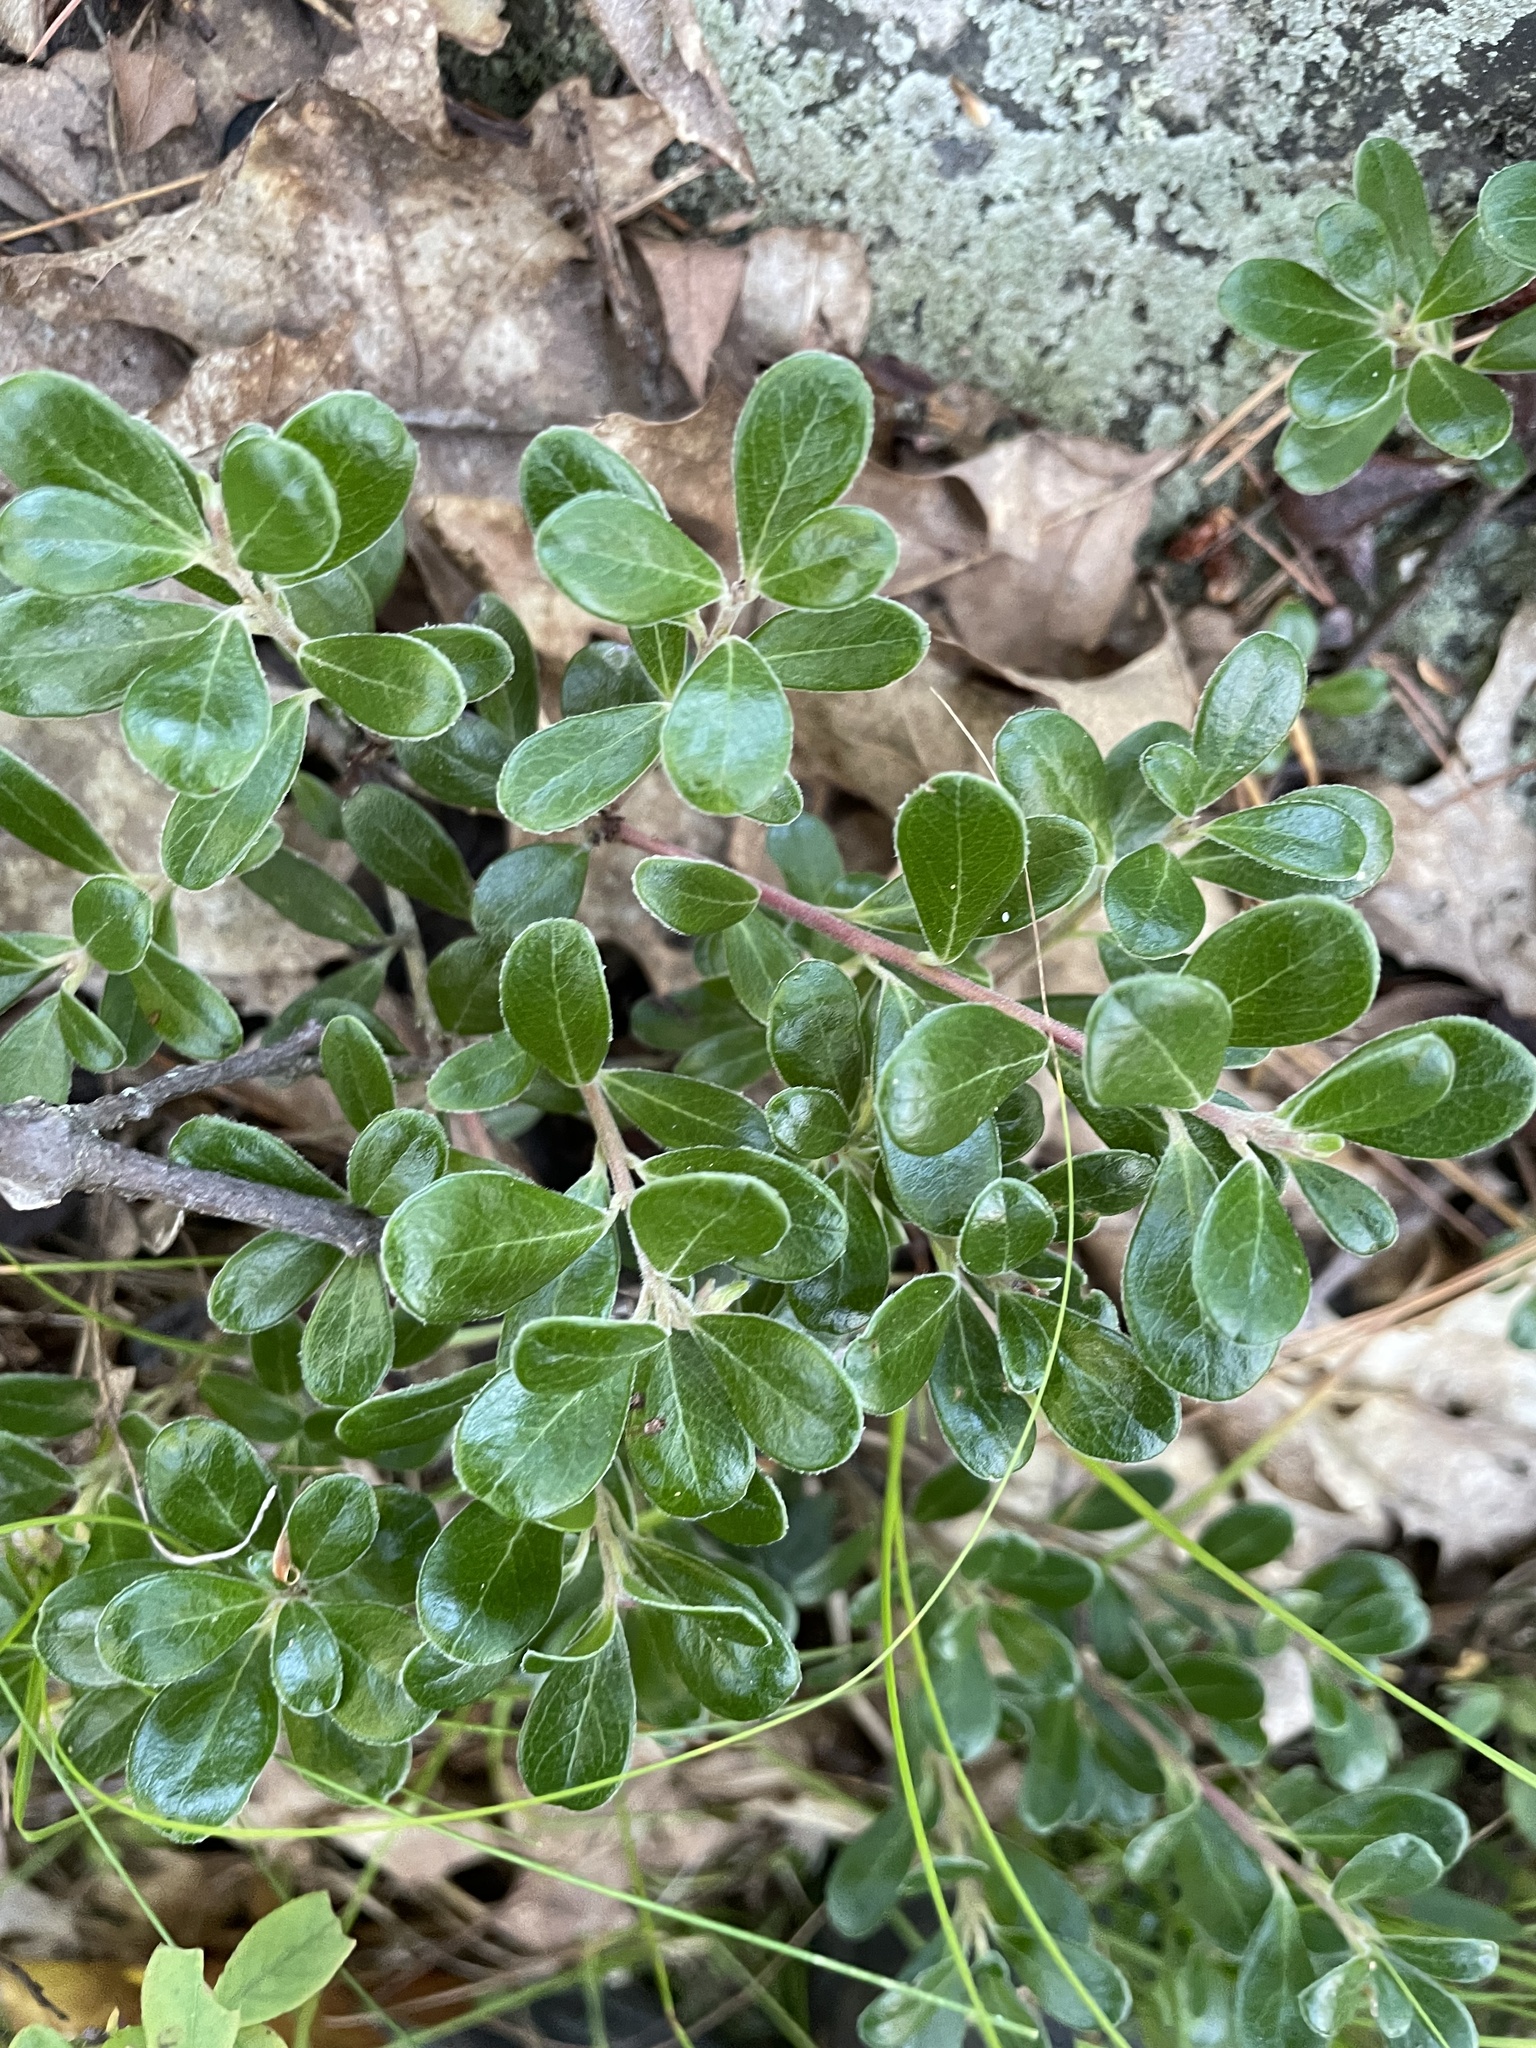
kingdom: Plantae
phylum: Tracheophyta
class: Magnoliopsida
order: Ericales
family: Ericaceae
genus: Arctostaphylos
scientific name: Arctostaphylos uva-ursi
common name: Bearberry
